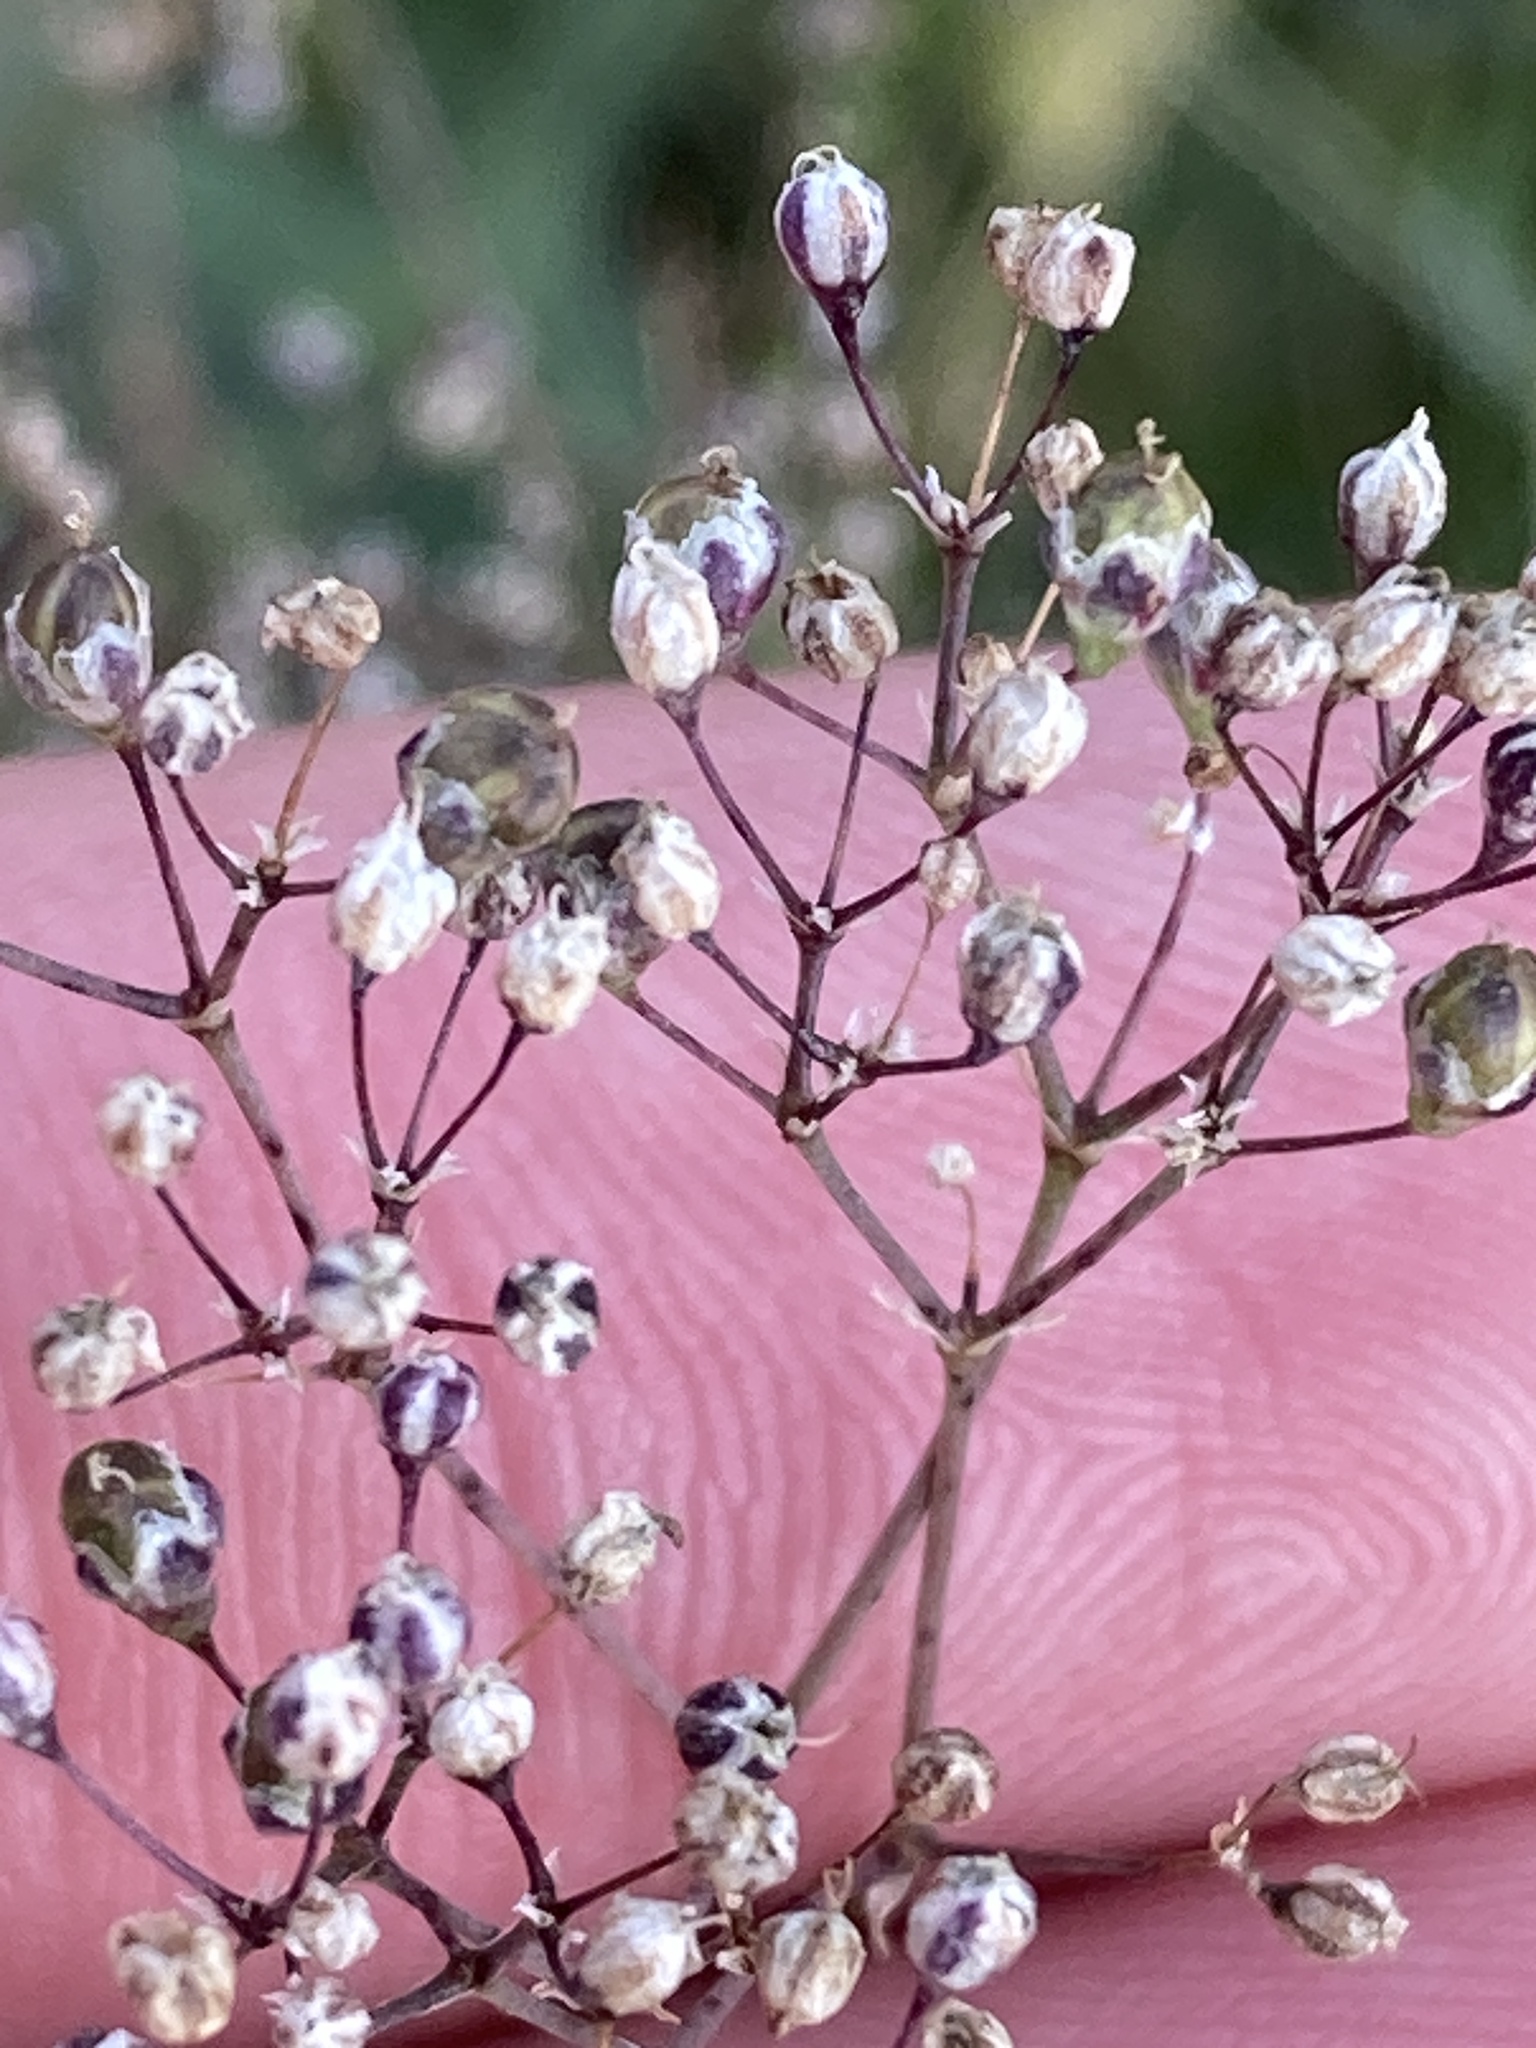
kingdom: Plantae
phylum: Tracheophyta
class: Magnoliopsida
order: Caryophyllales
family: Caryophyllaceae
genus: Gypsophila
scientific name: Gypsophila paniculata
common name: Baby's-breath
